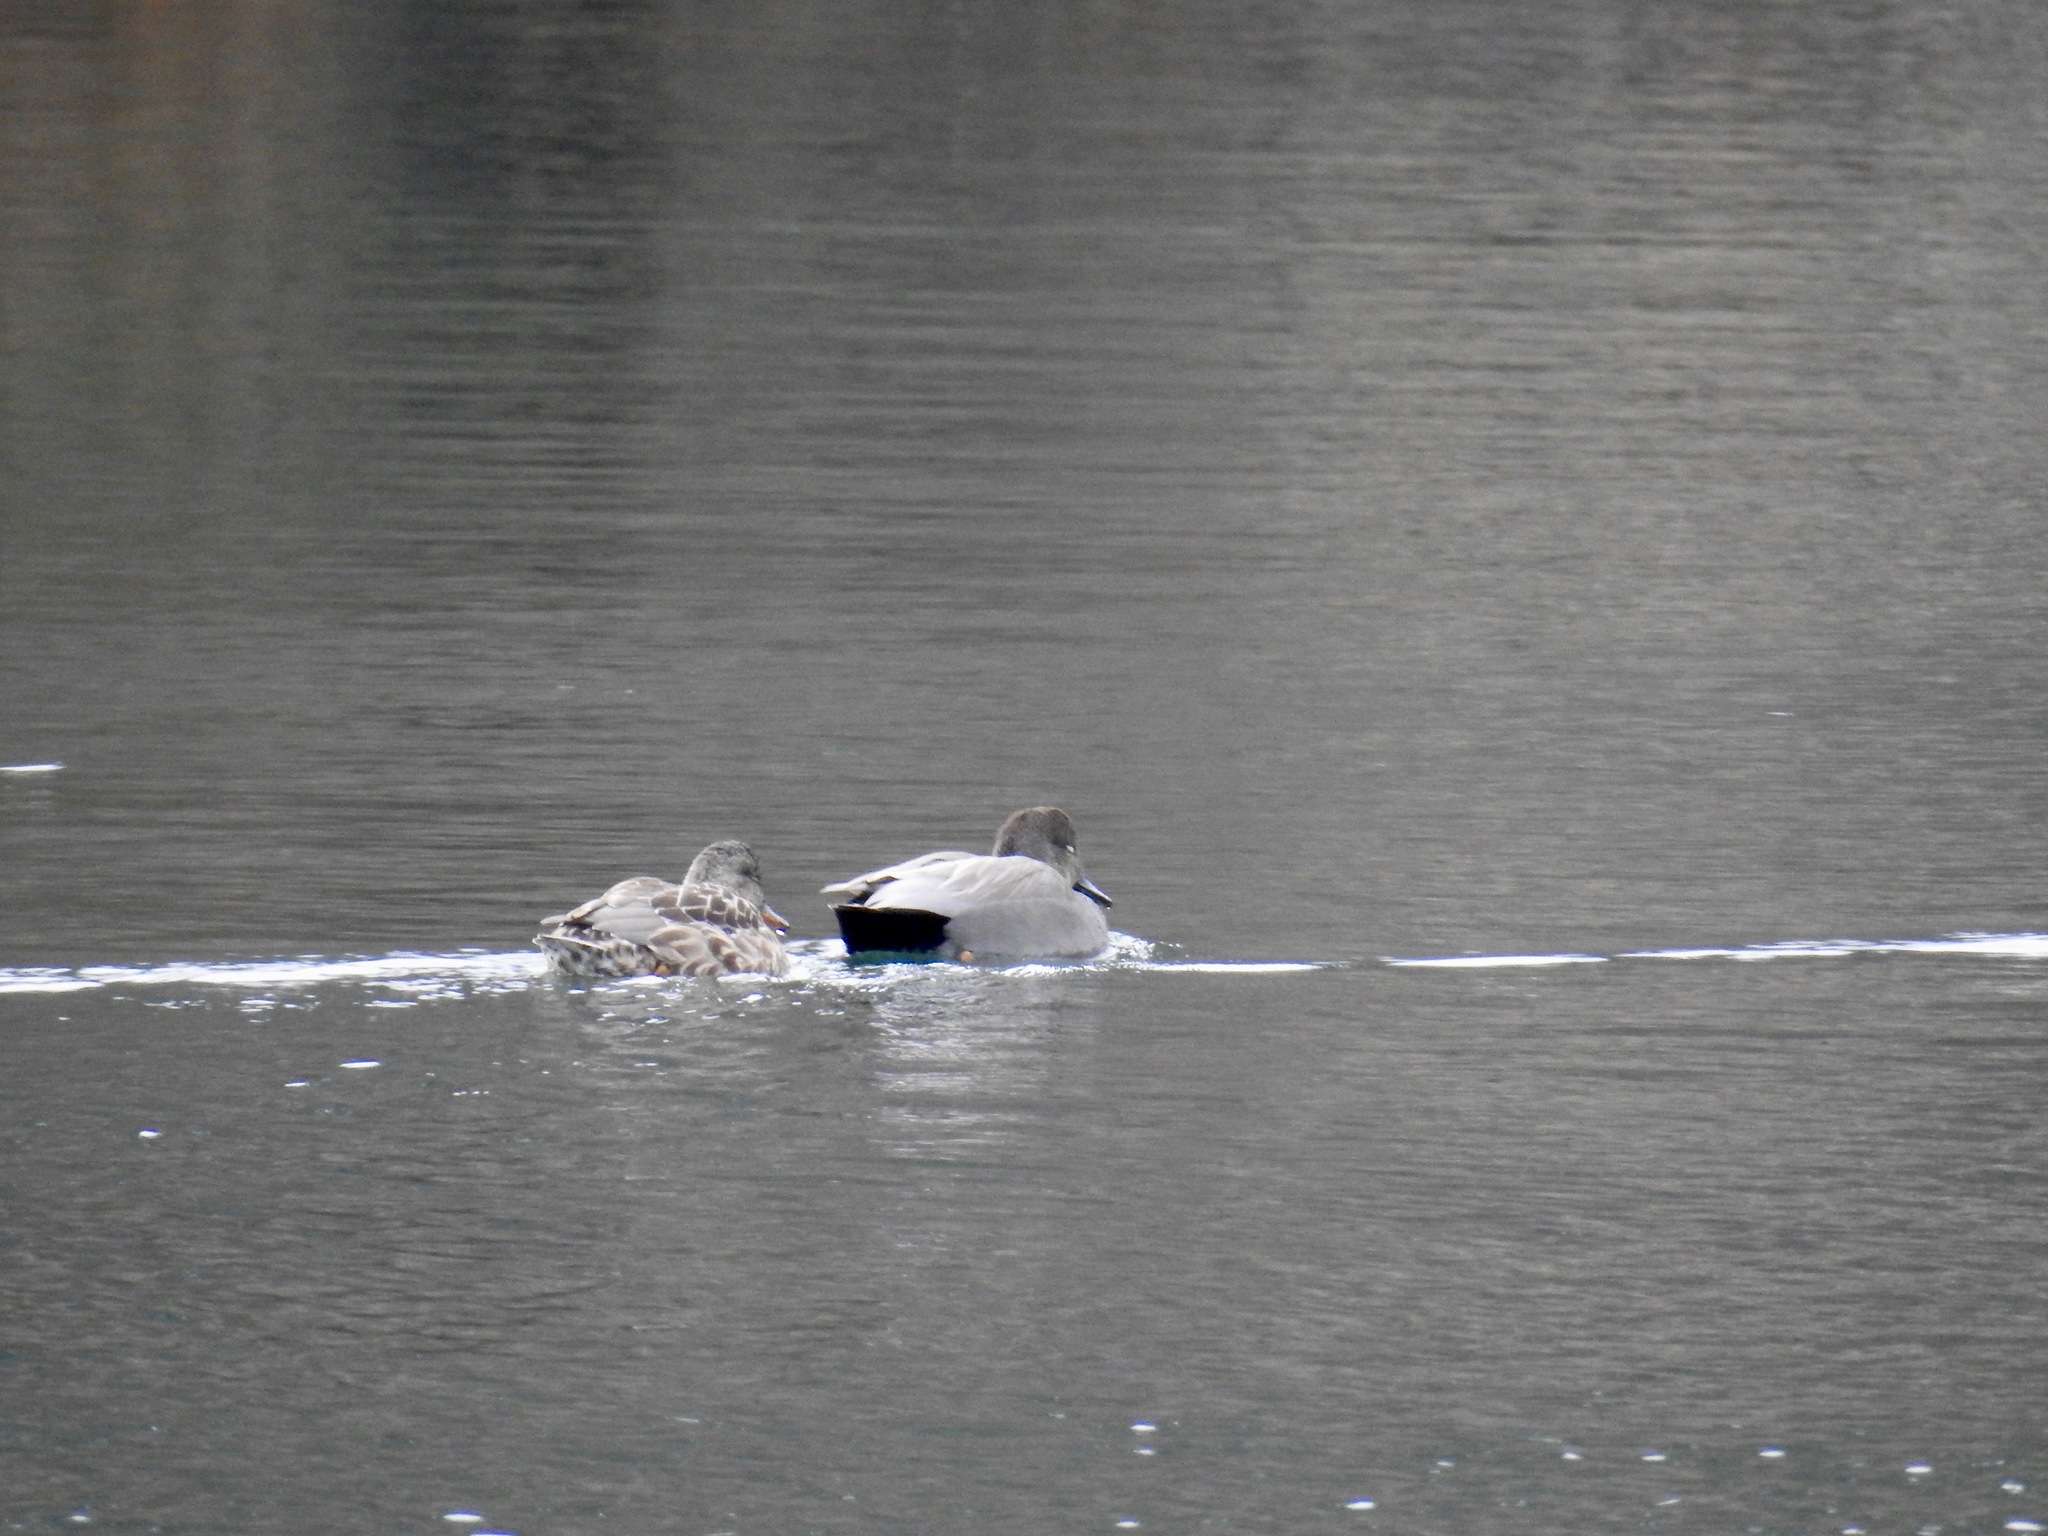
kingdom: Animalia
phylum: Chordata
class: Aves
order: Anseriformes
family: Anatidae
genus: Mareca
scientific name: Mareca strepera
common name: Gadwall
